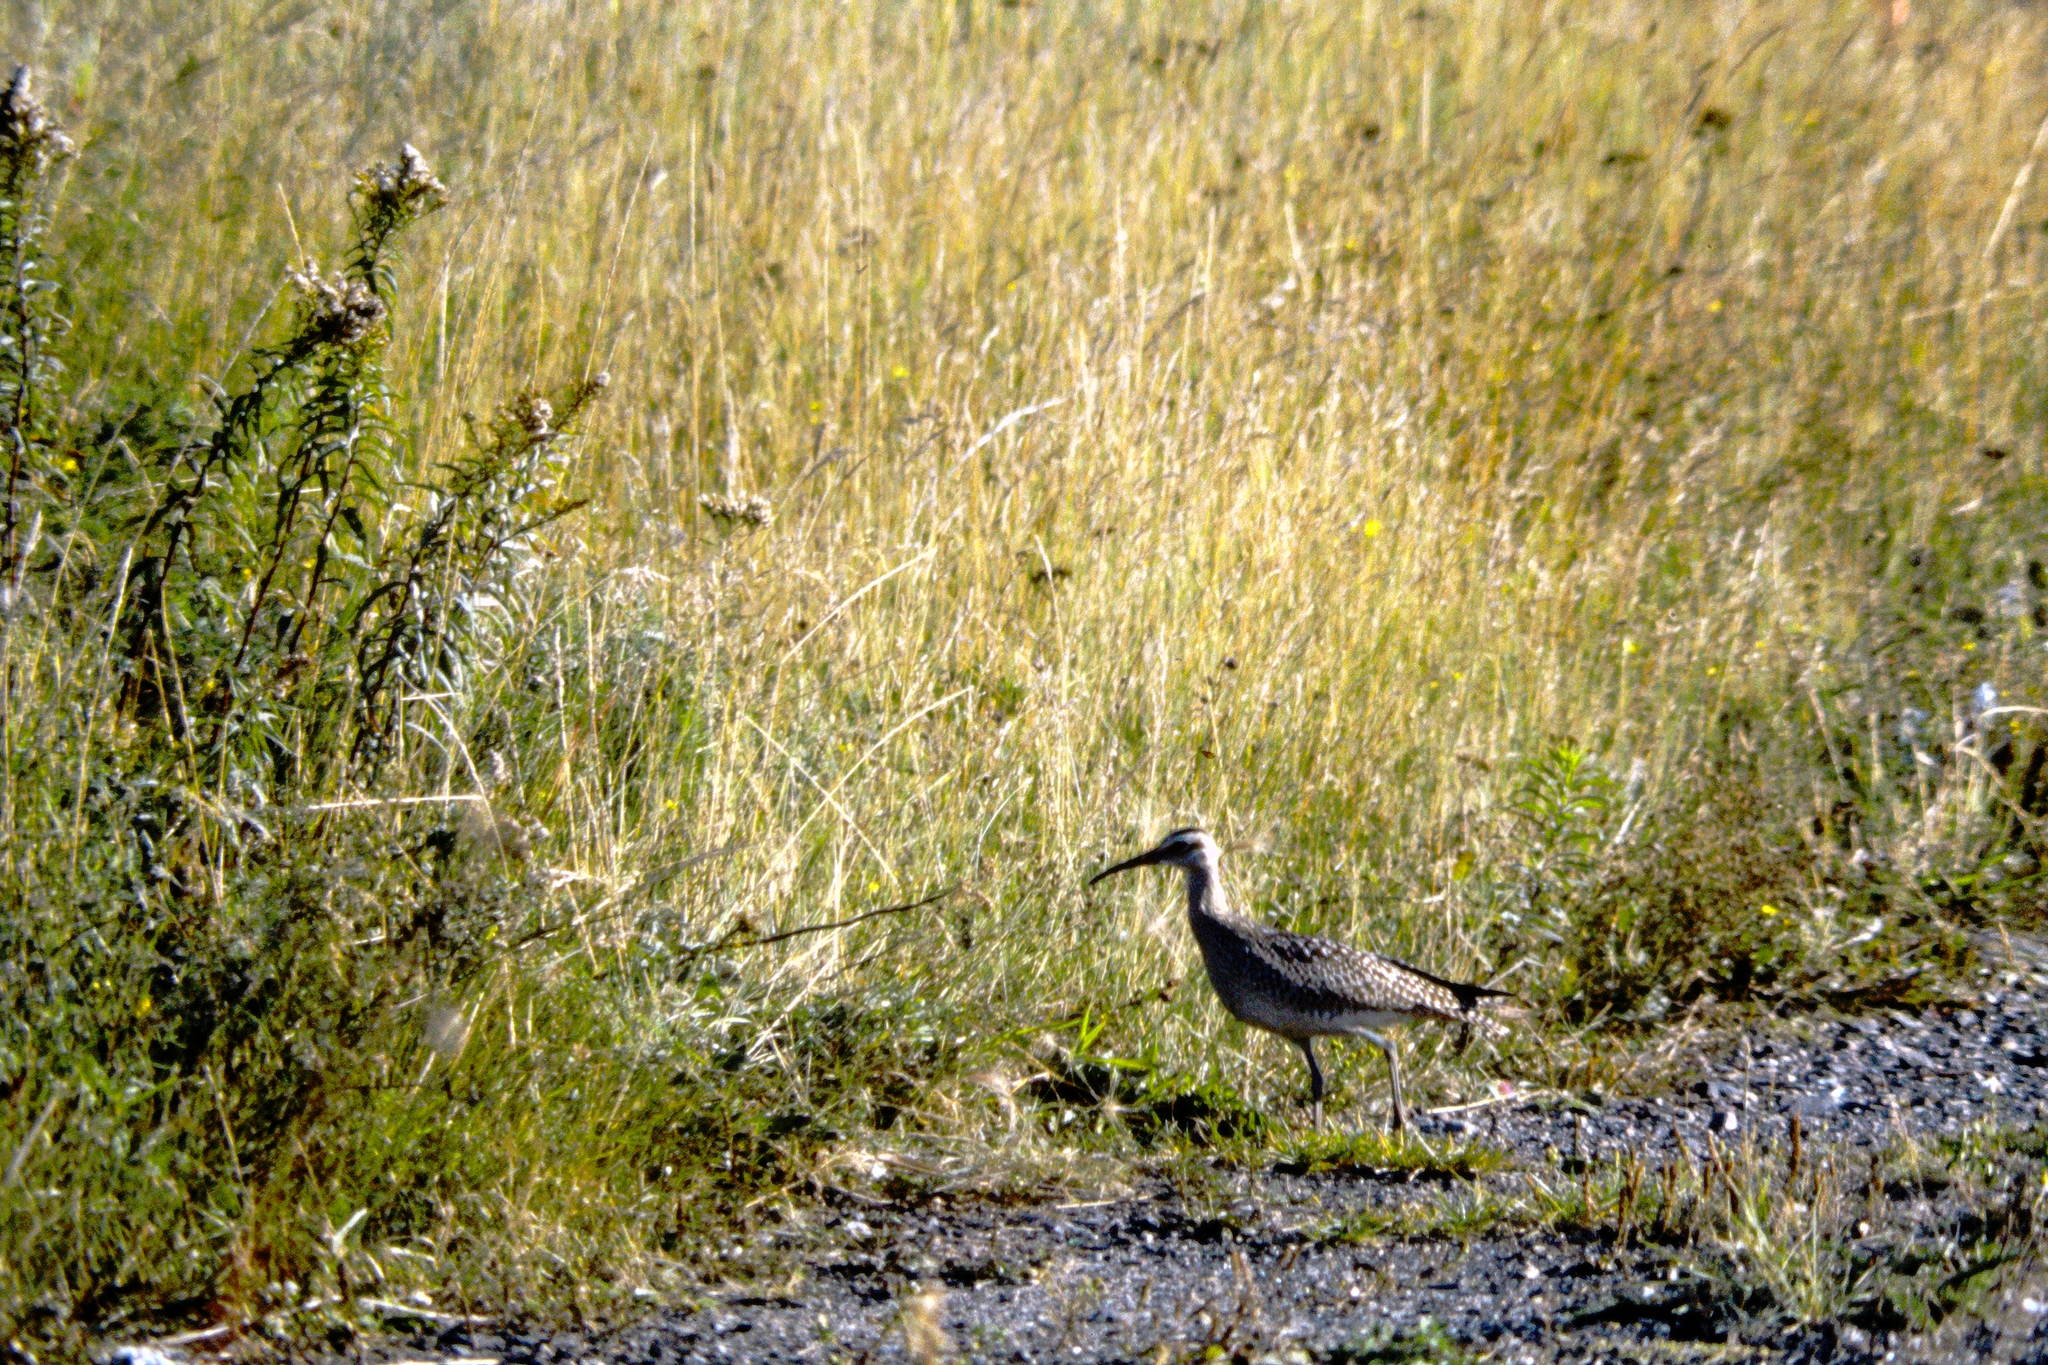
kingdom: Animalia
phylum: Chordata
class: Aves
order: Charadriiformes
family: Scolopacidae
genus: Numenius
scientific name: Numenius phaeopus
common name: Whimbrel
